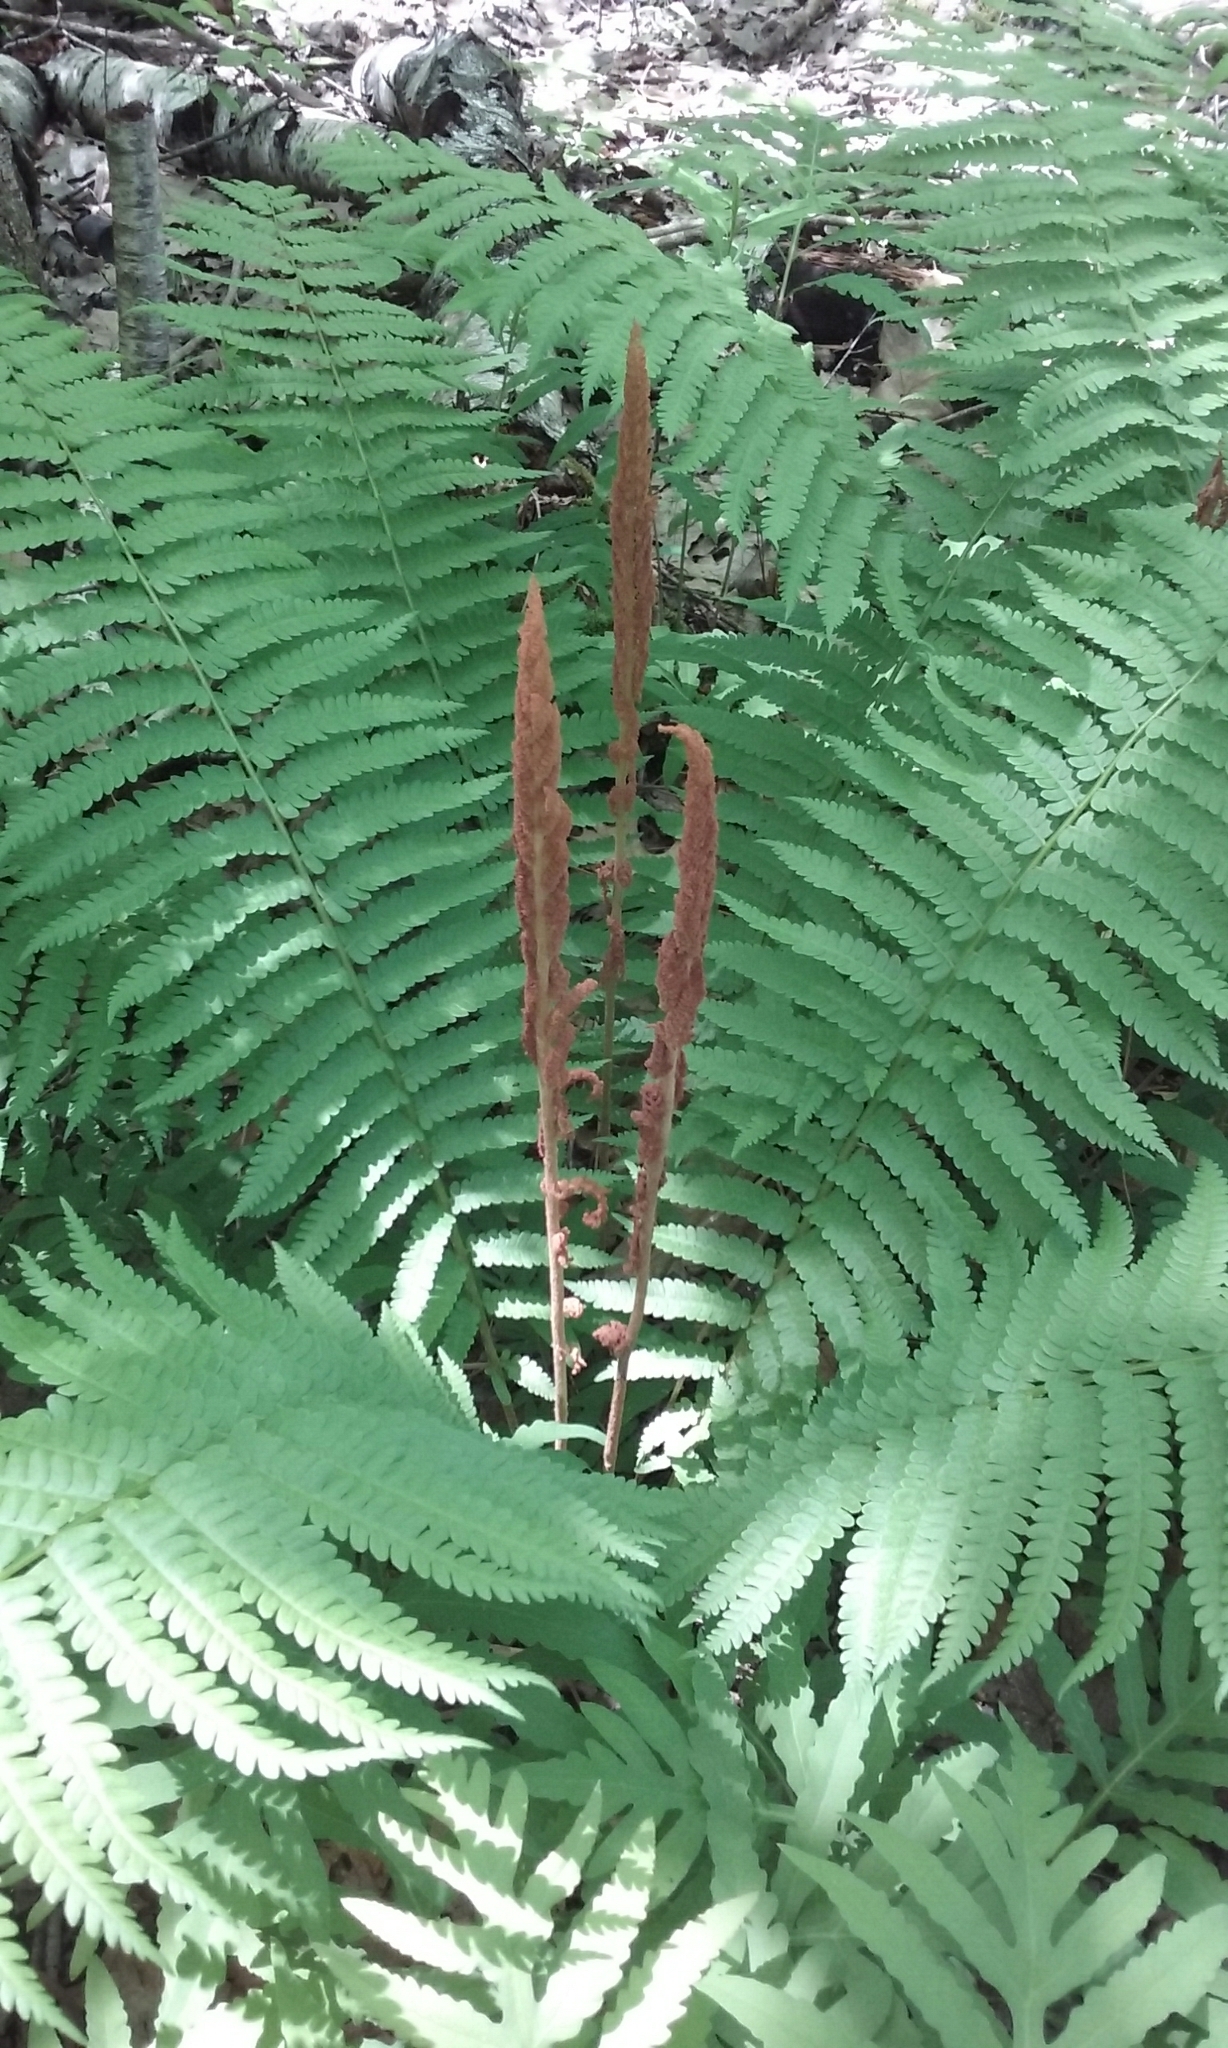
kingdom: Plantae
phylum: Tracheophyta
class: Polypodiopsida
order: Osmundales
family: Osmundaceae
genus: Osmundastrum
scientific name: Osmundastrum cinnamomeum
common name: Cinnamon fern
